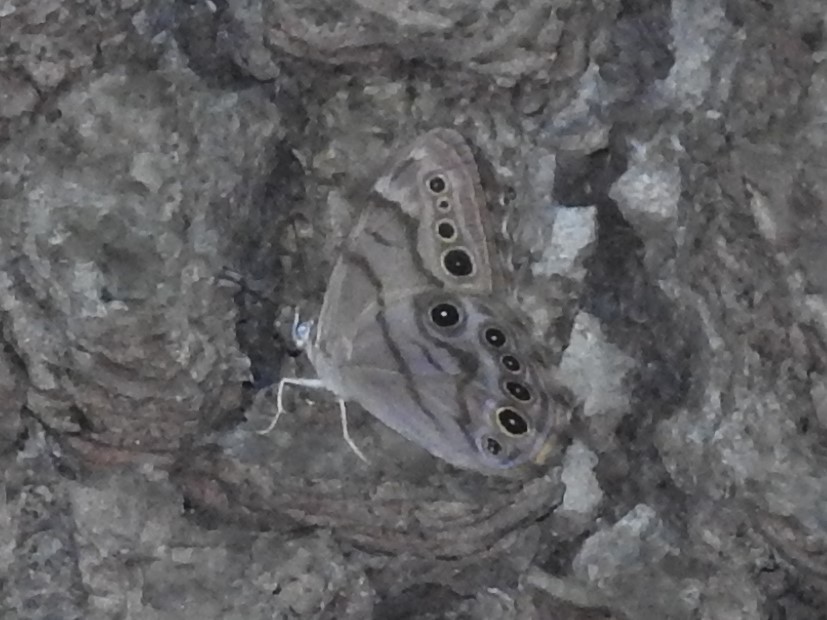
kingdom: Animalia
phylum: Arthropoda
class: Insecta
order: Lepidoptera
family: Nymphalidae
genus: Lethe
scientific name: Lethe anthedon
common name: Northern pearly-eye
